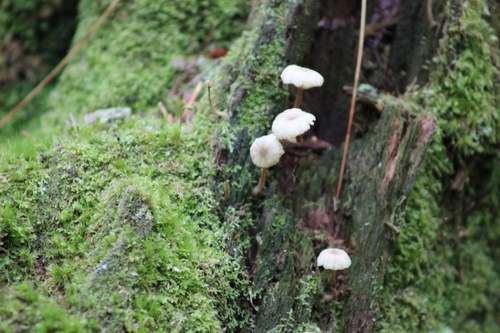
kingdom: Fungi
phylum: Basidiomycota
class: Agaricomycetes
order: Agaricales
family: Hygrophoraceae
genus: Lichenomphalia
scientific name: Lichenomphalia umbellifera
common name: Heath navel
